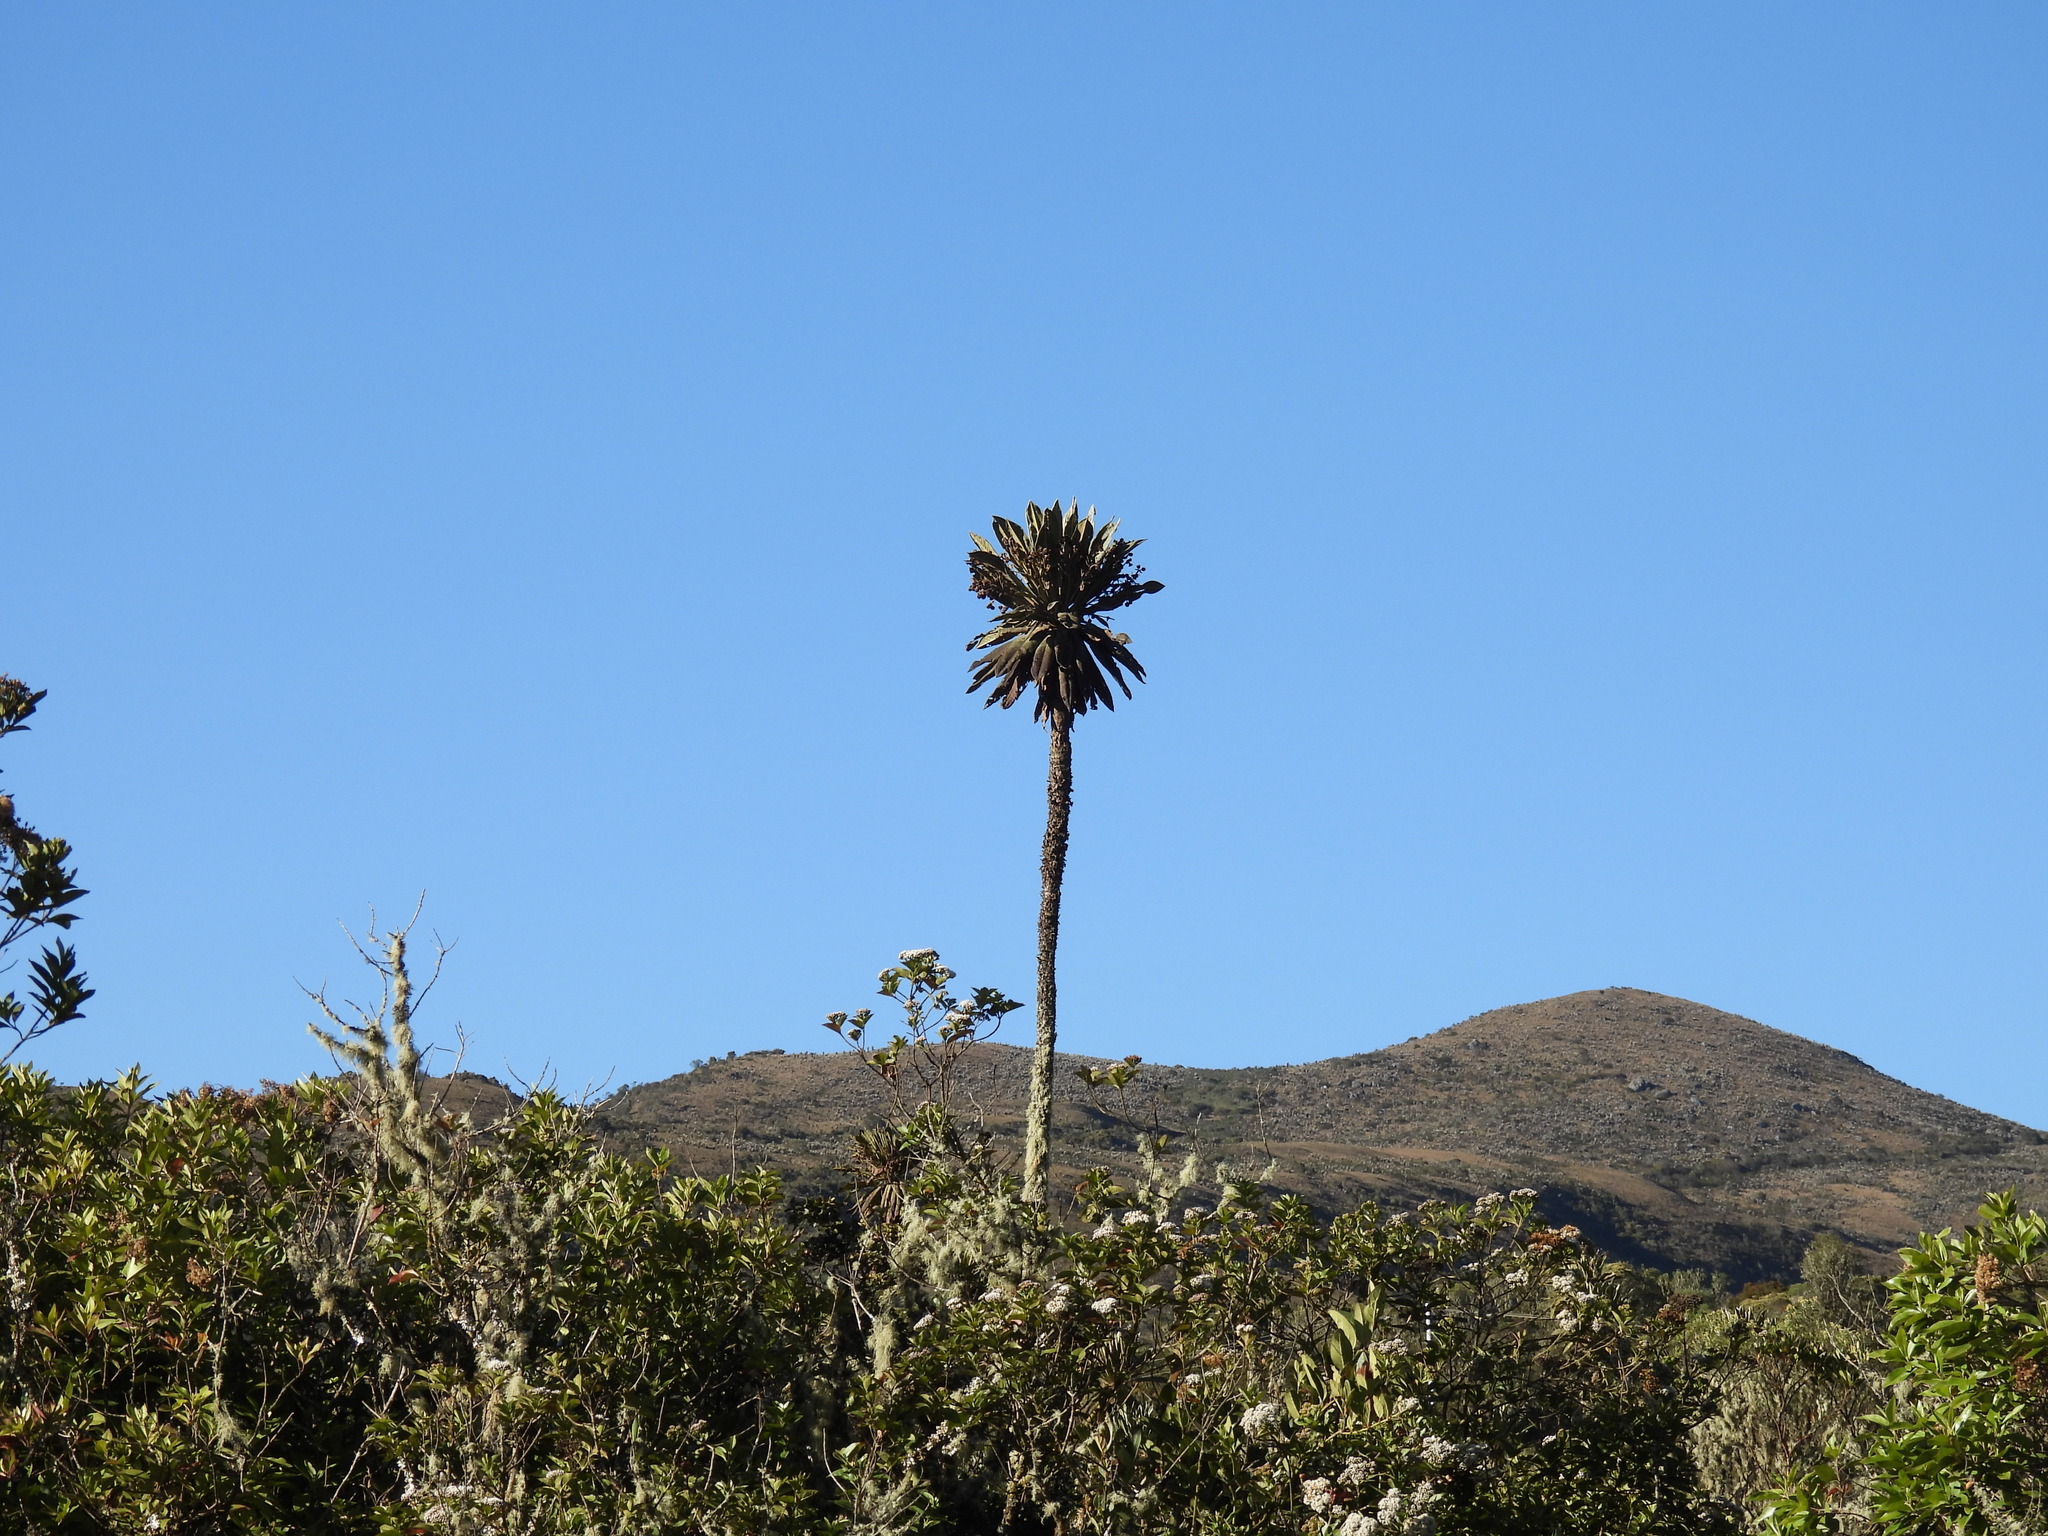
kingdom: Plantae
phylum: Tracheophyta
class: Magnoliopsida
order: Asterales
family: Asteraceae
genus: Espeletia
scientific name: Espeletia uribei
